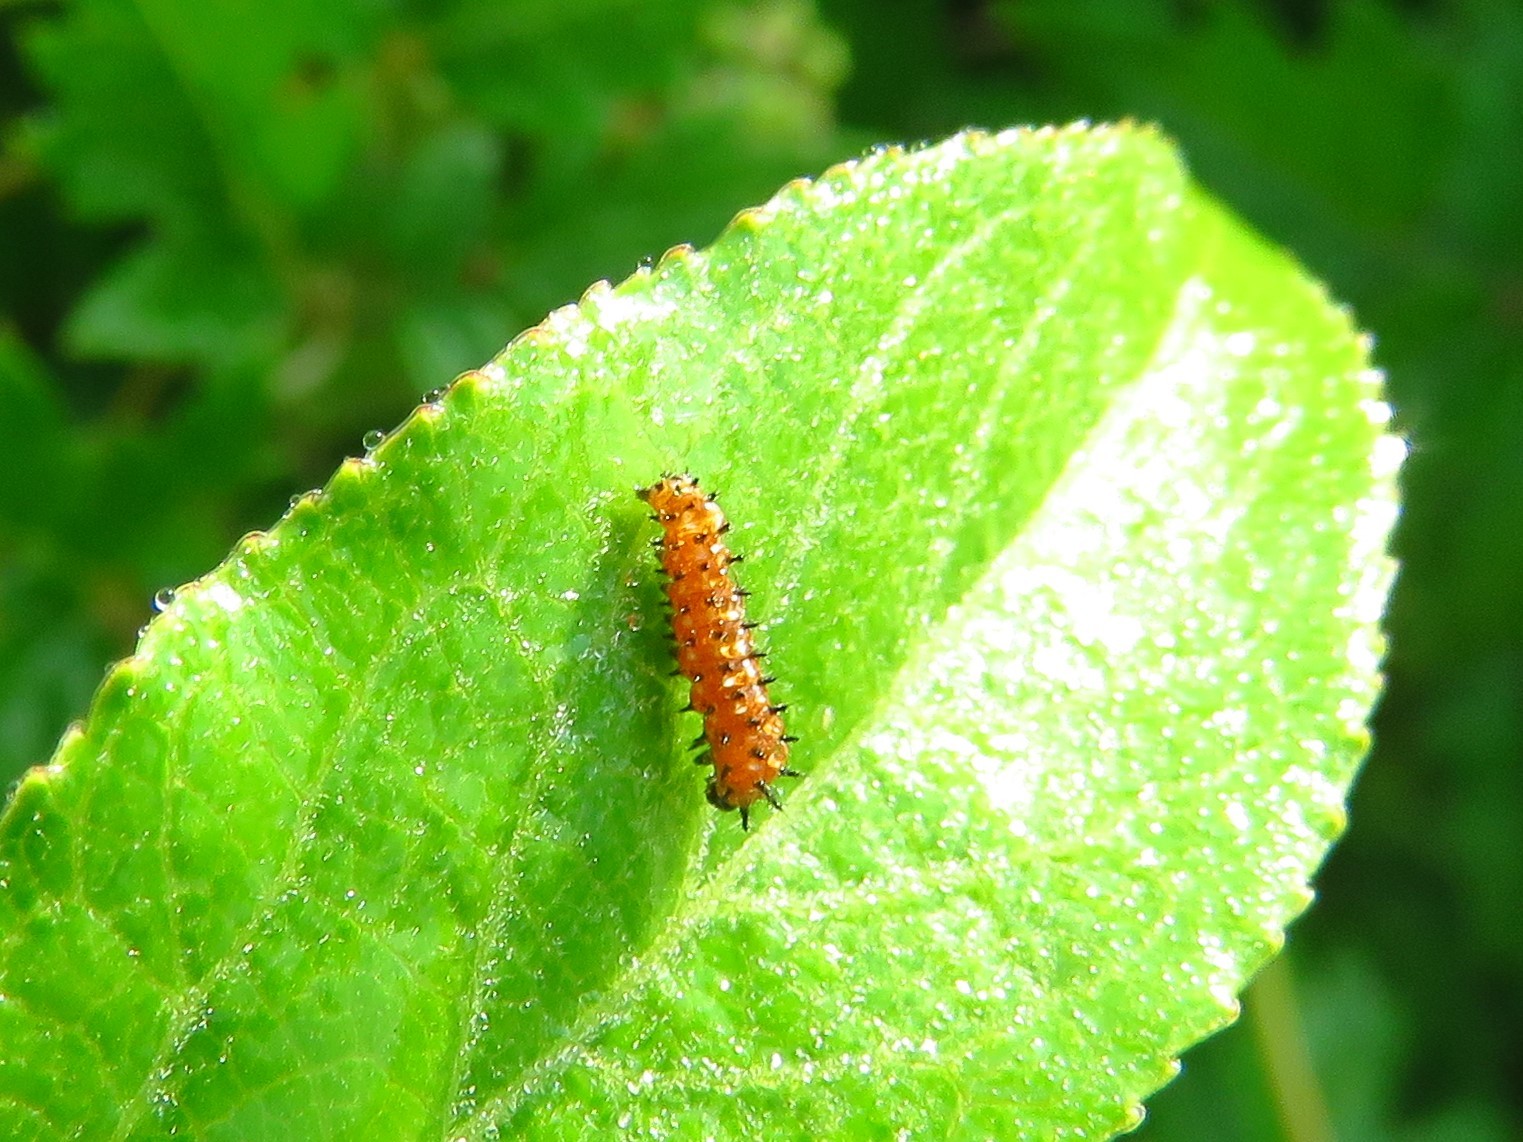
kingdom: Animalia
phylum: Arthropoda
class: Insecta
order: Lepidoptera
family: Nymphalidae
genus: Dione
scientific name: Dione vanillae
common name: Gulf fritillary
